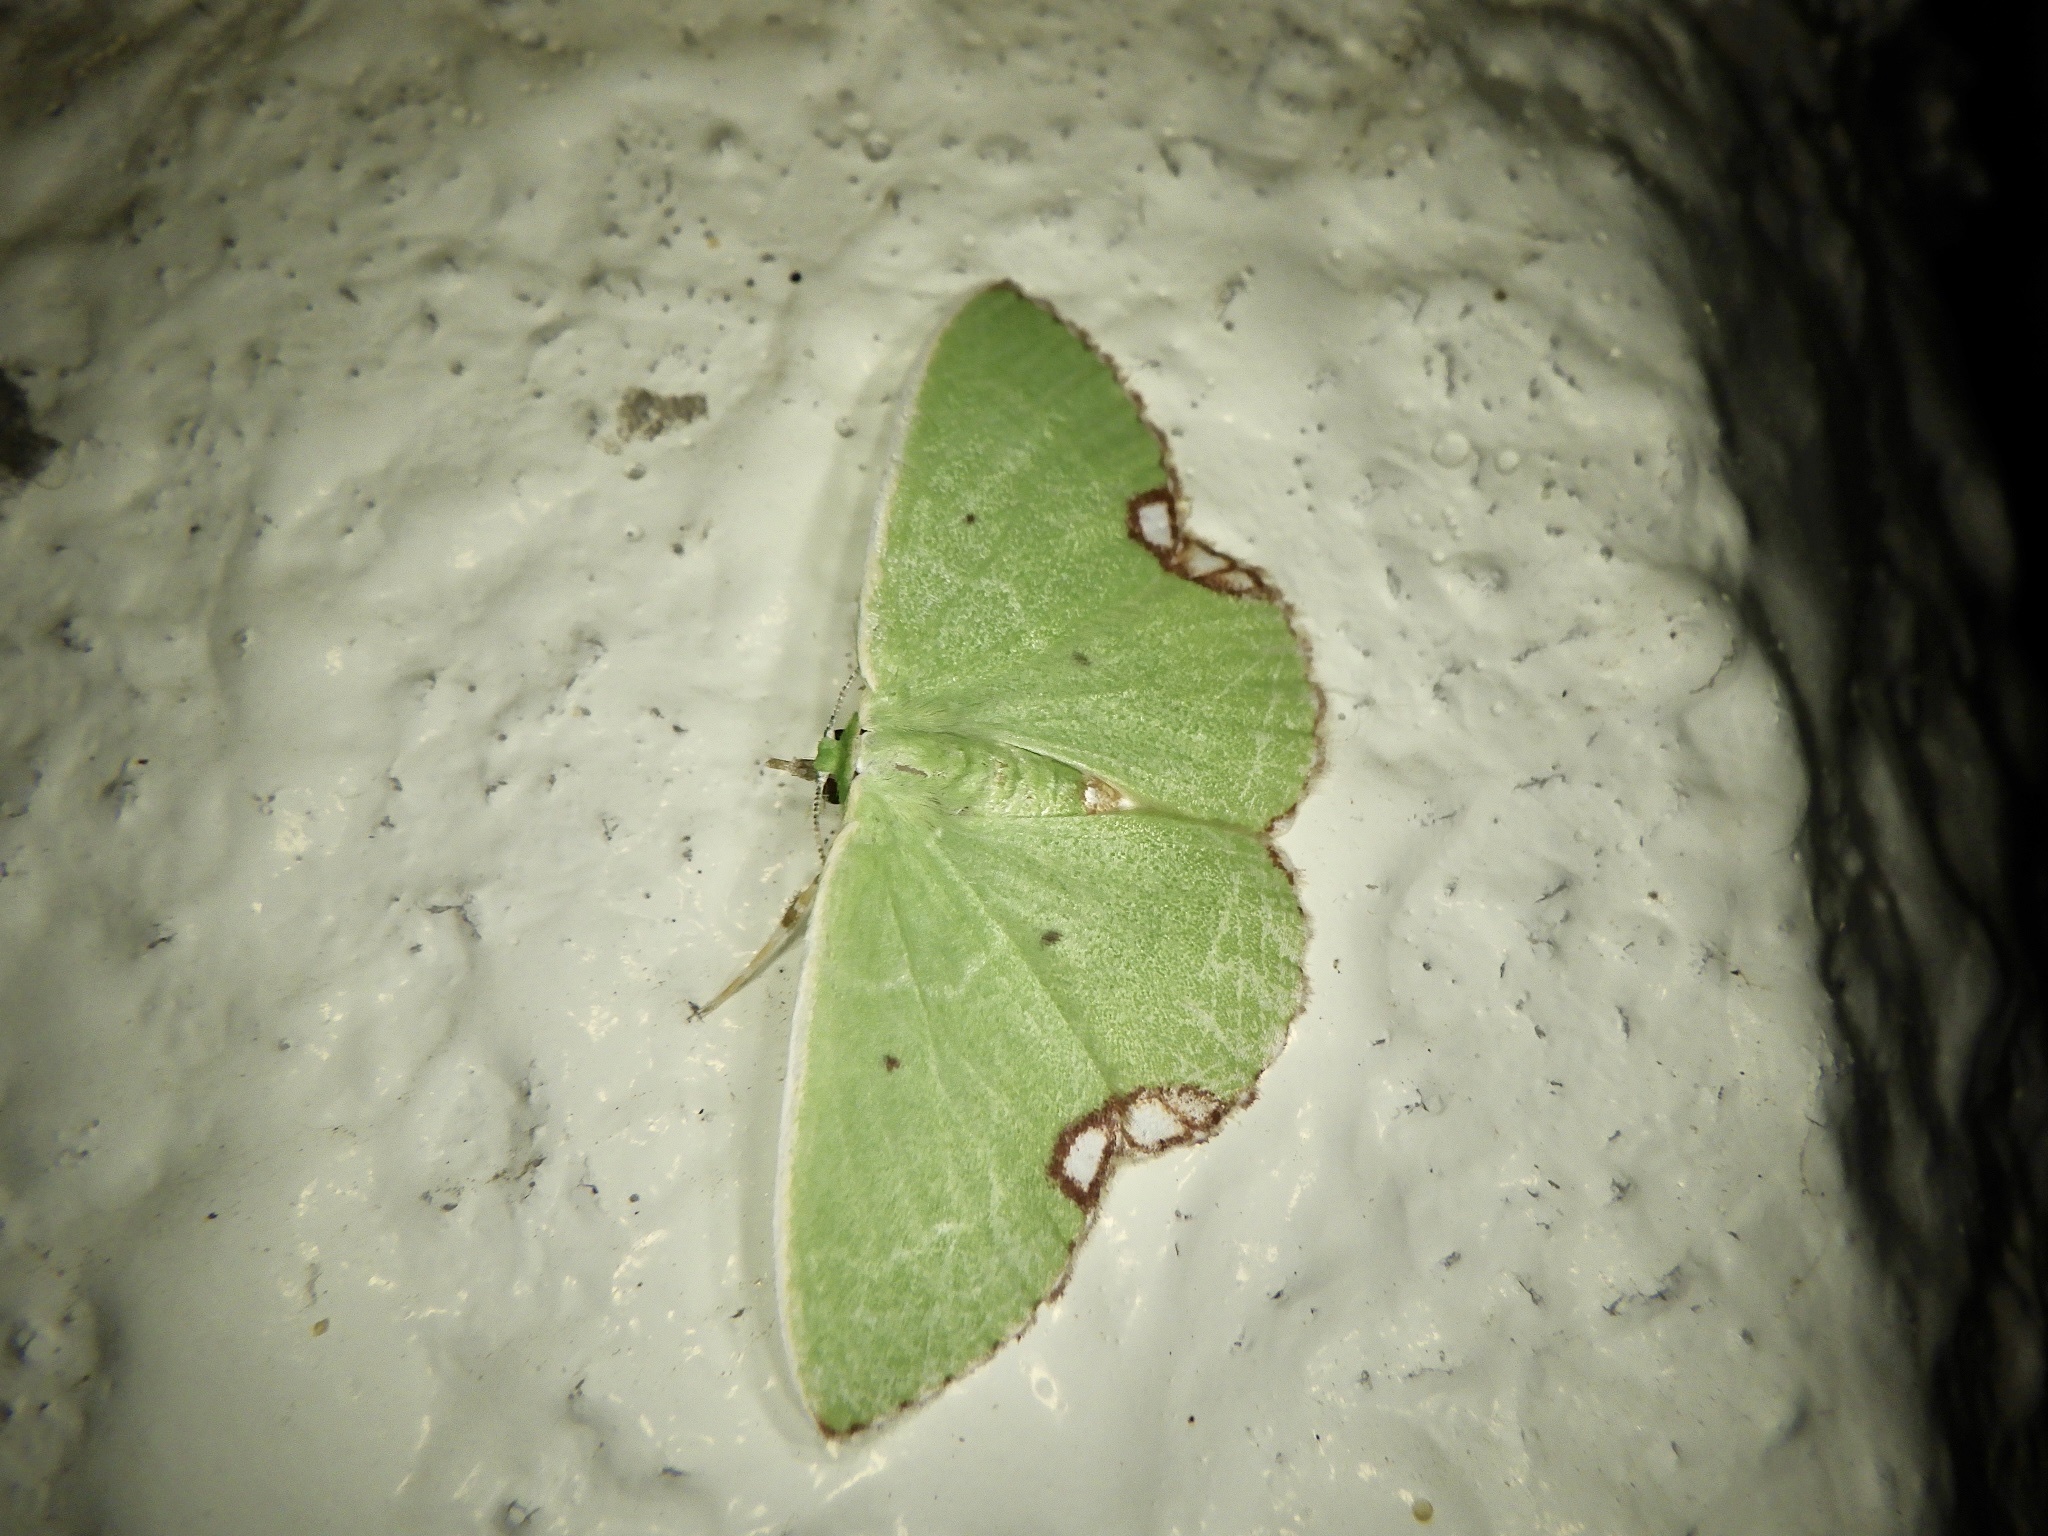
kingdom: Animalia
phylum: Arthropoda
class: Insecta
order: Lepidoptera
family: Geometridae
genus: Comibaena
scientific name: Comibaena procumbaria
